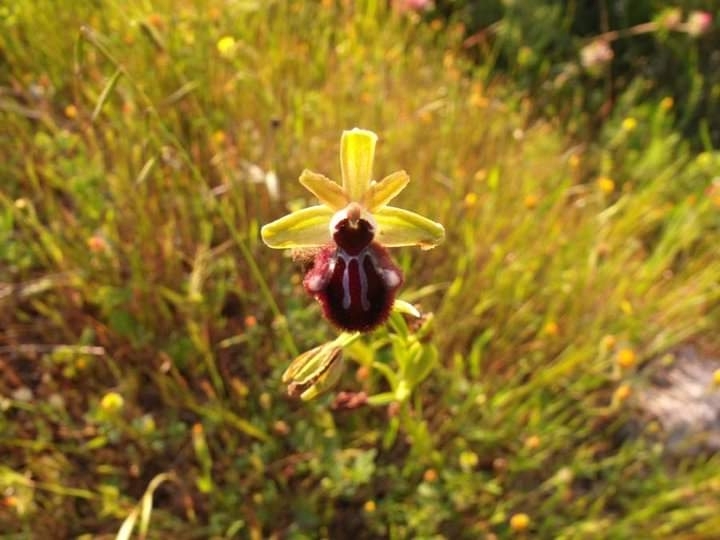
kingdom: Plantae
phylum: Tracheophyta
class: Liliopsida
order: Asparagales
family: Orchidaceae
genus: Ophrys
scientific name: Ophrys sphegodes
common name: Early spider-orchid
